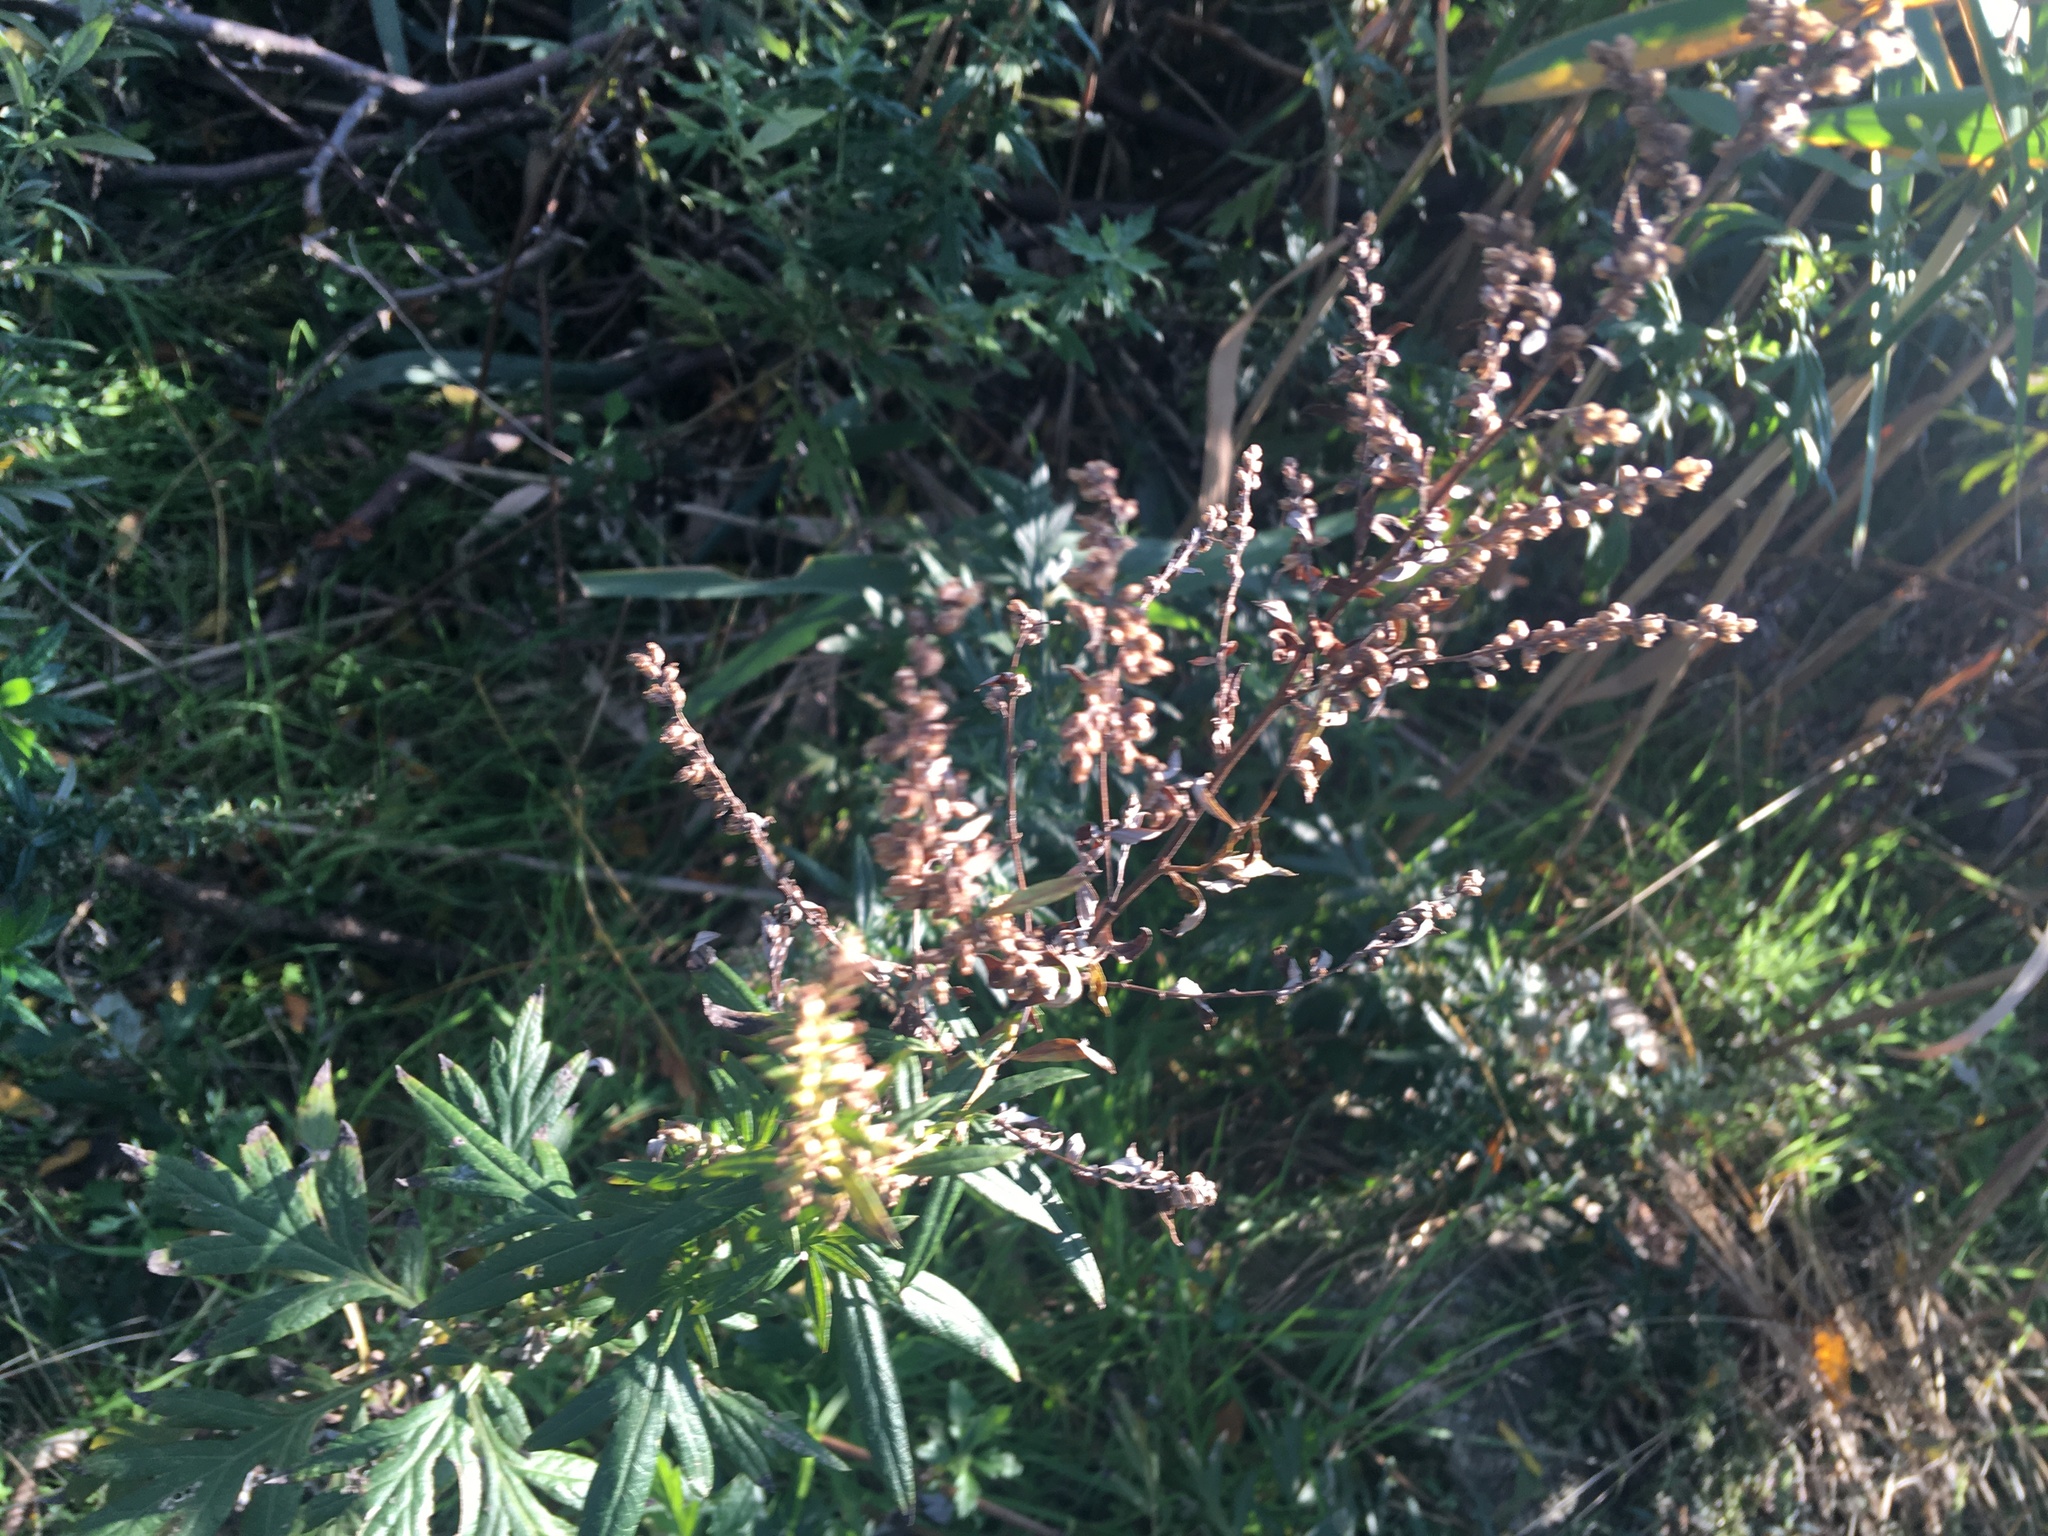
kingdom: Plantae
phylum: Tracheophyta
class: Magnoliopsida
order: Asterales
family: Asteraceae
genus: Artemisia
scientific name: Artemisia vulgaris
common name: Mugwort
